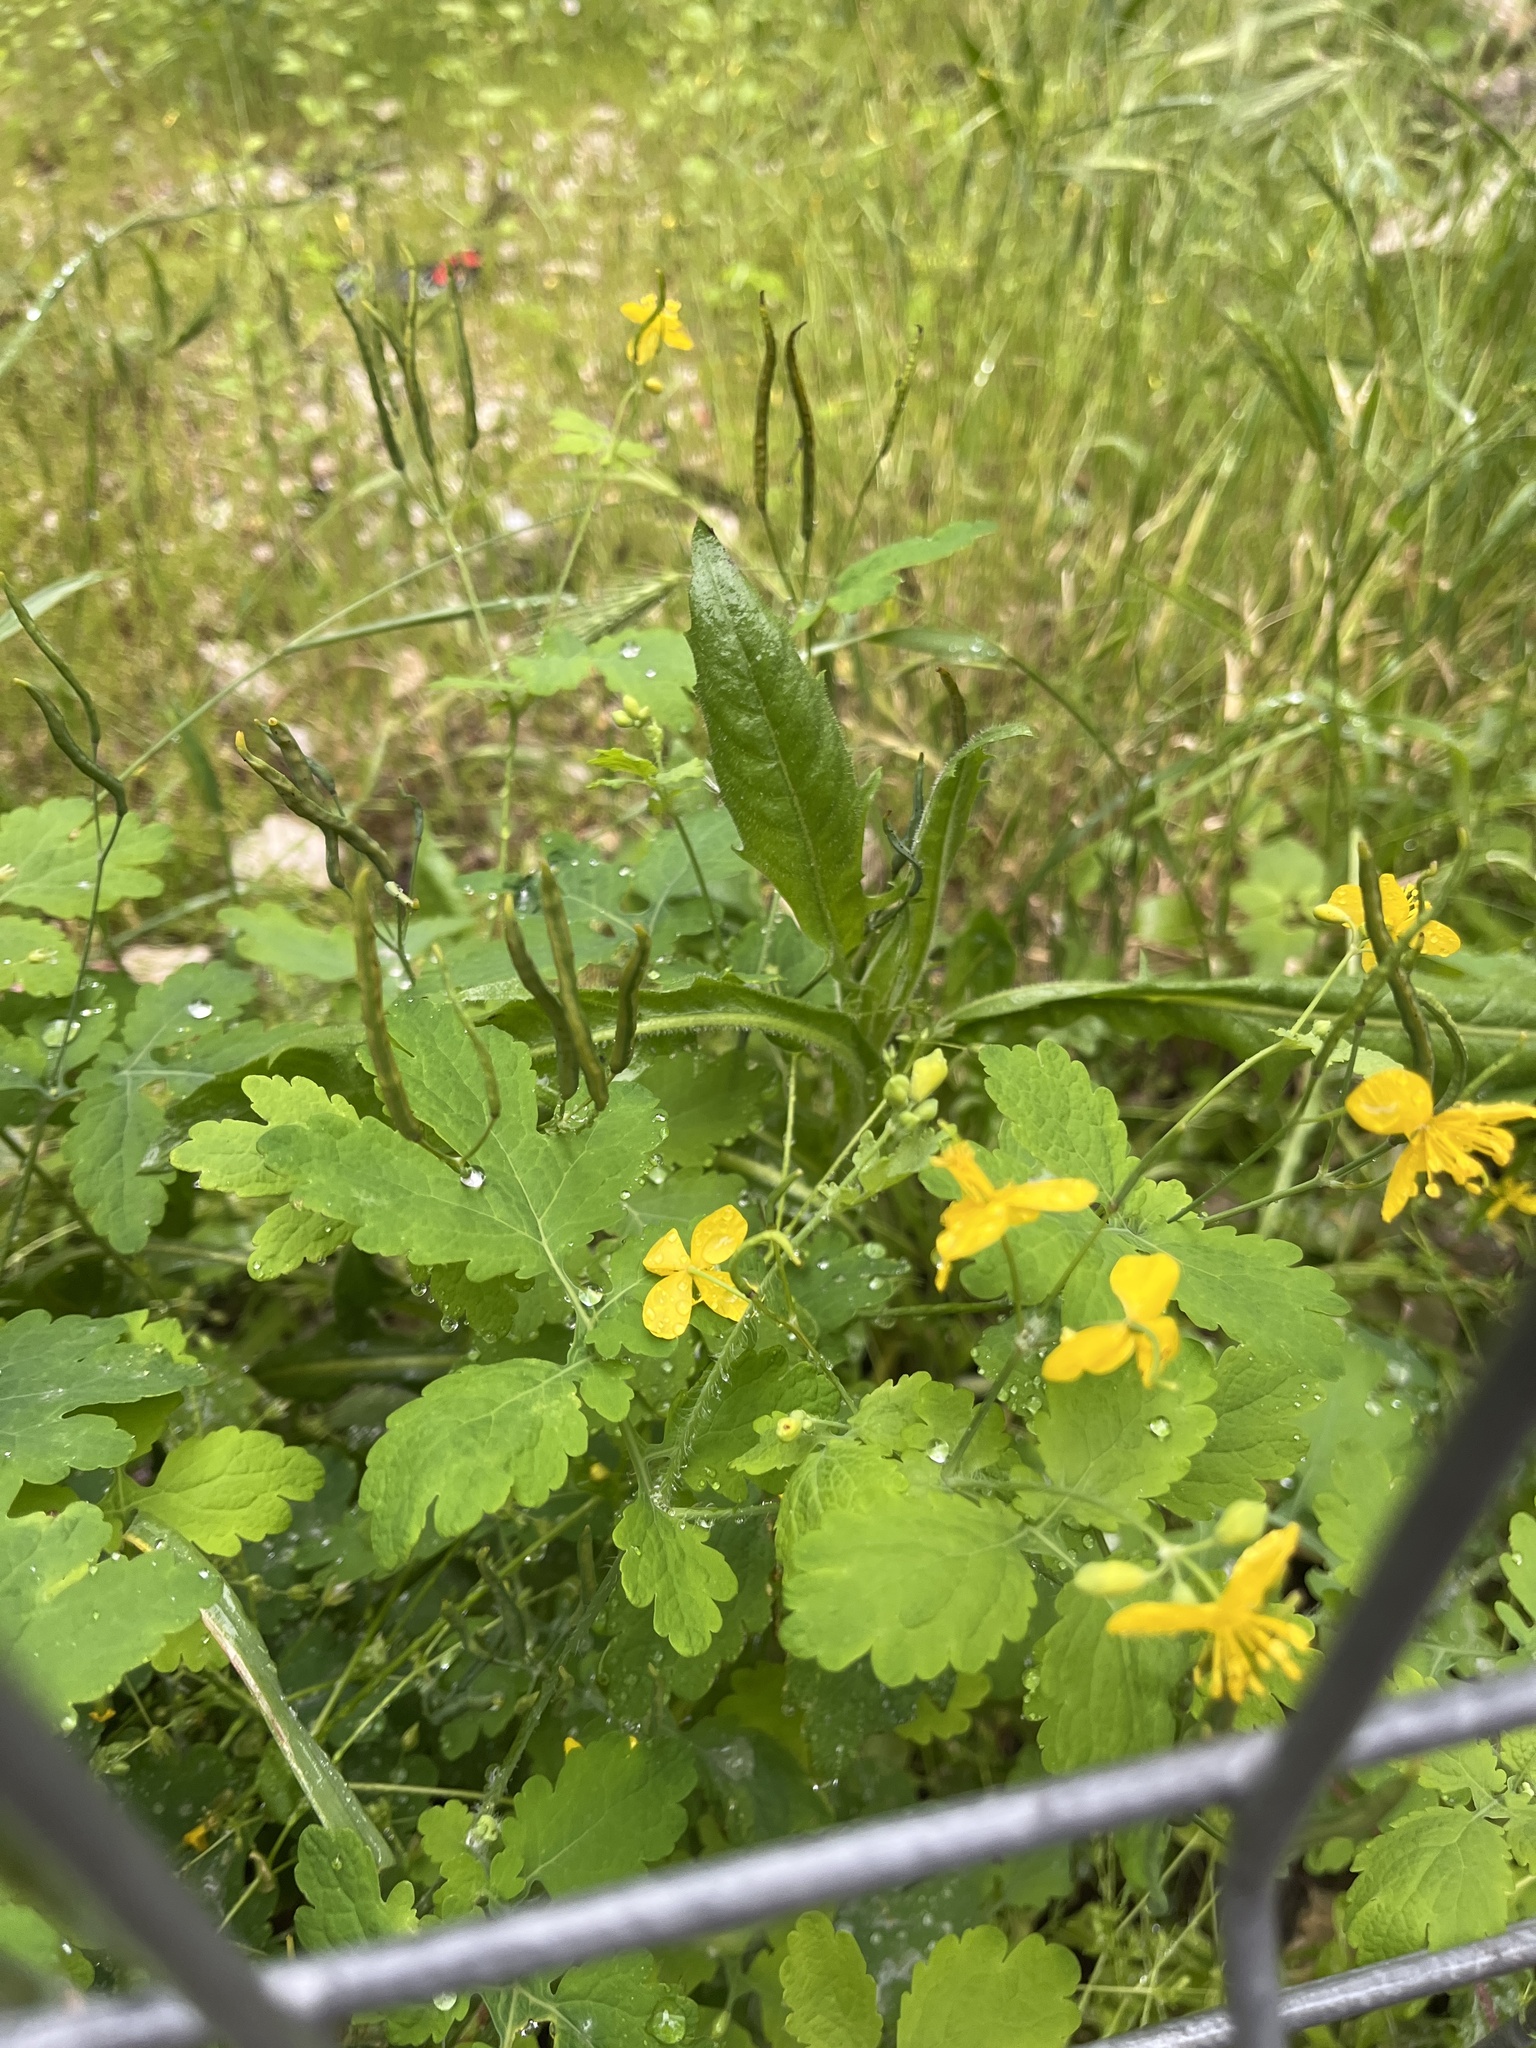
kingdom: Plantae
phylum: Tracheophyta
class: Magnoliopsida
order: Ranunculales
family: Papaveraceae
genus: Chelidonium
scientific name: Chelidonium majus
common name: Greater celandine
